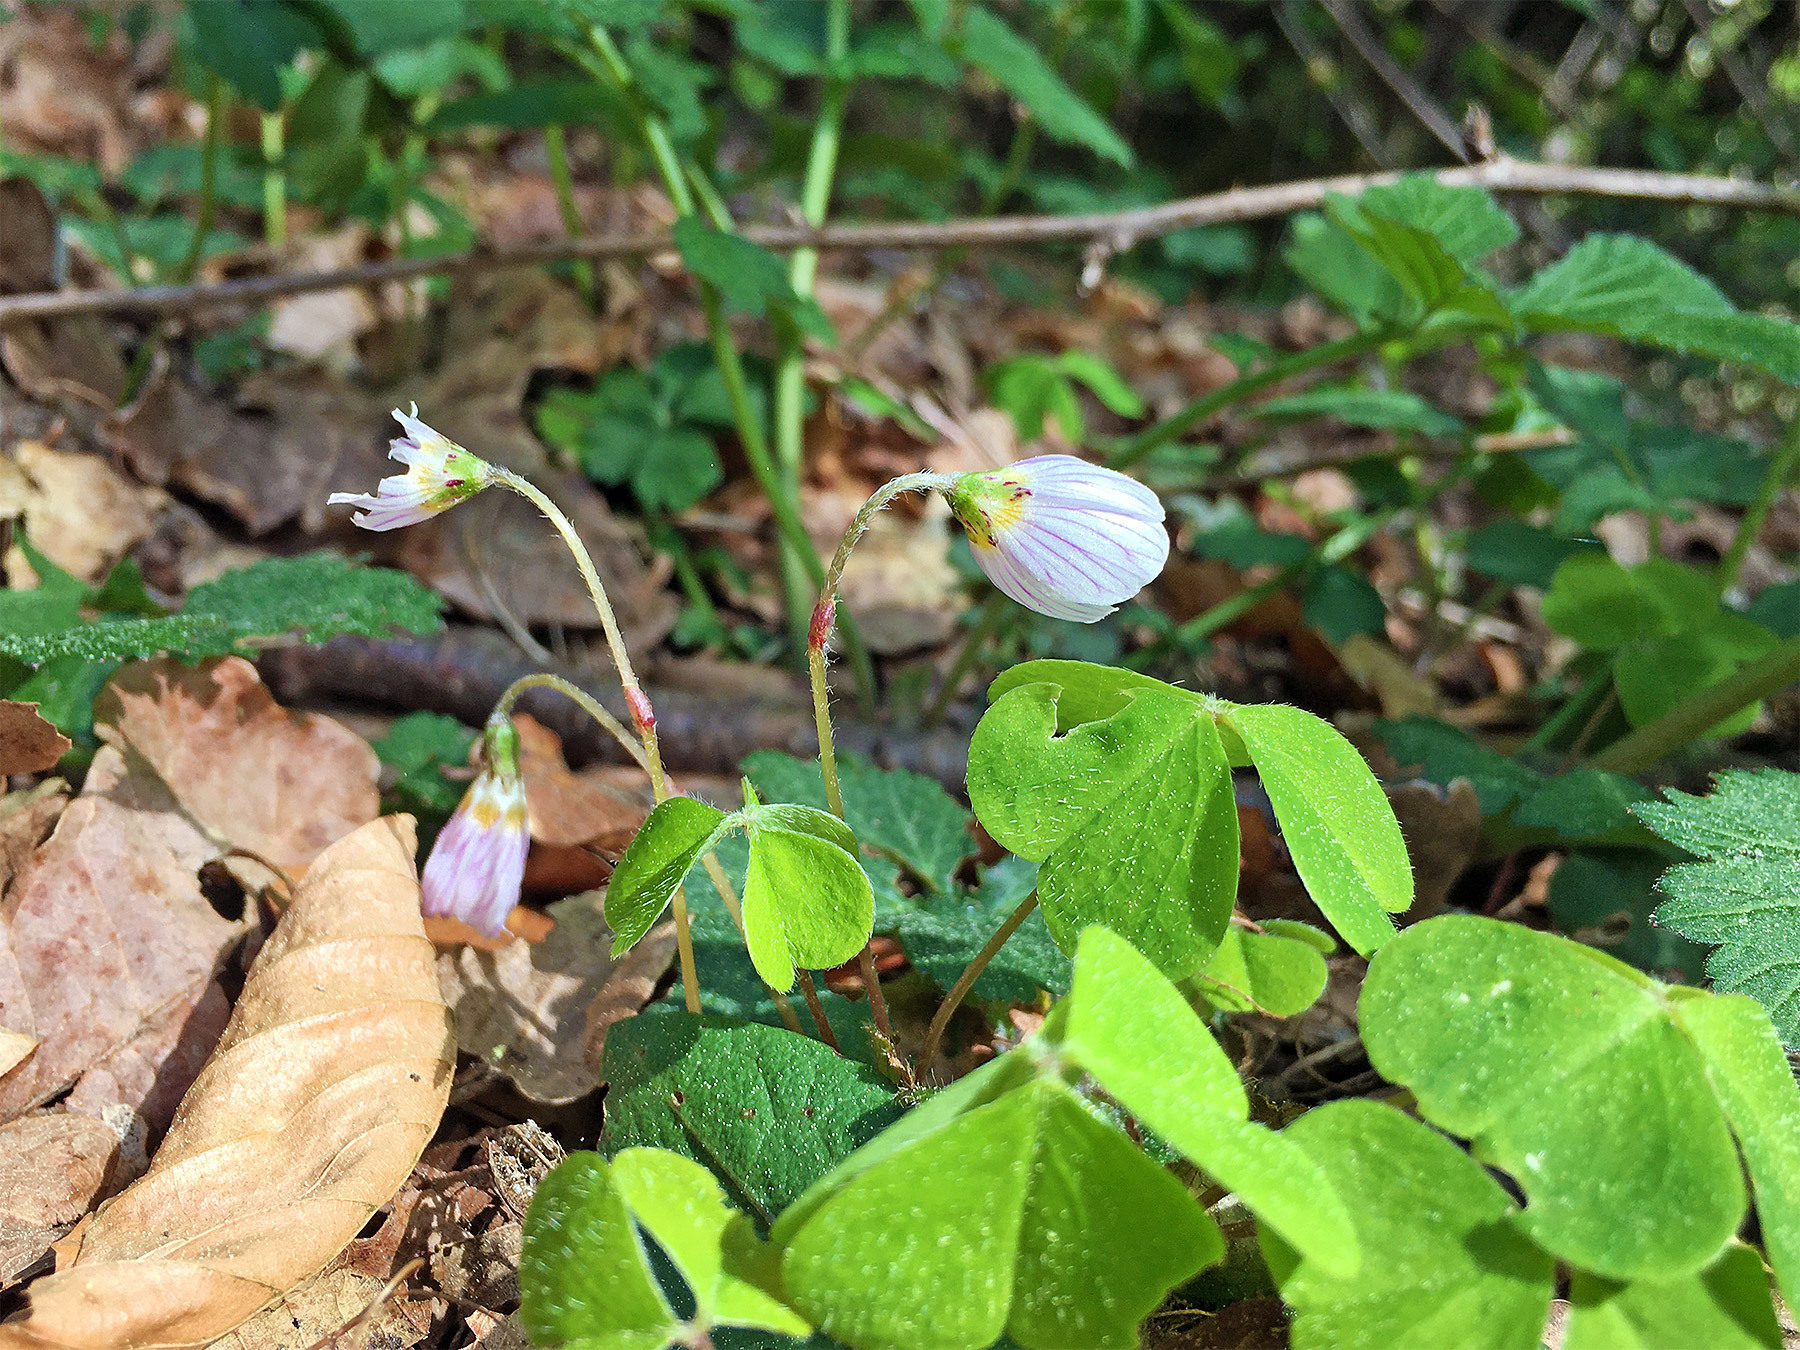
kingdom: Plantae
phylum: Tracheophyta
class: Magnoliopsida
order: Oxalidales
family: Oxalidaceae
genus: Oxalis
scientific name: Oxalis acetosella
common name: Wood-sorrel
